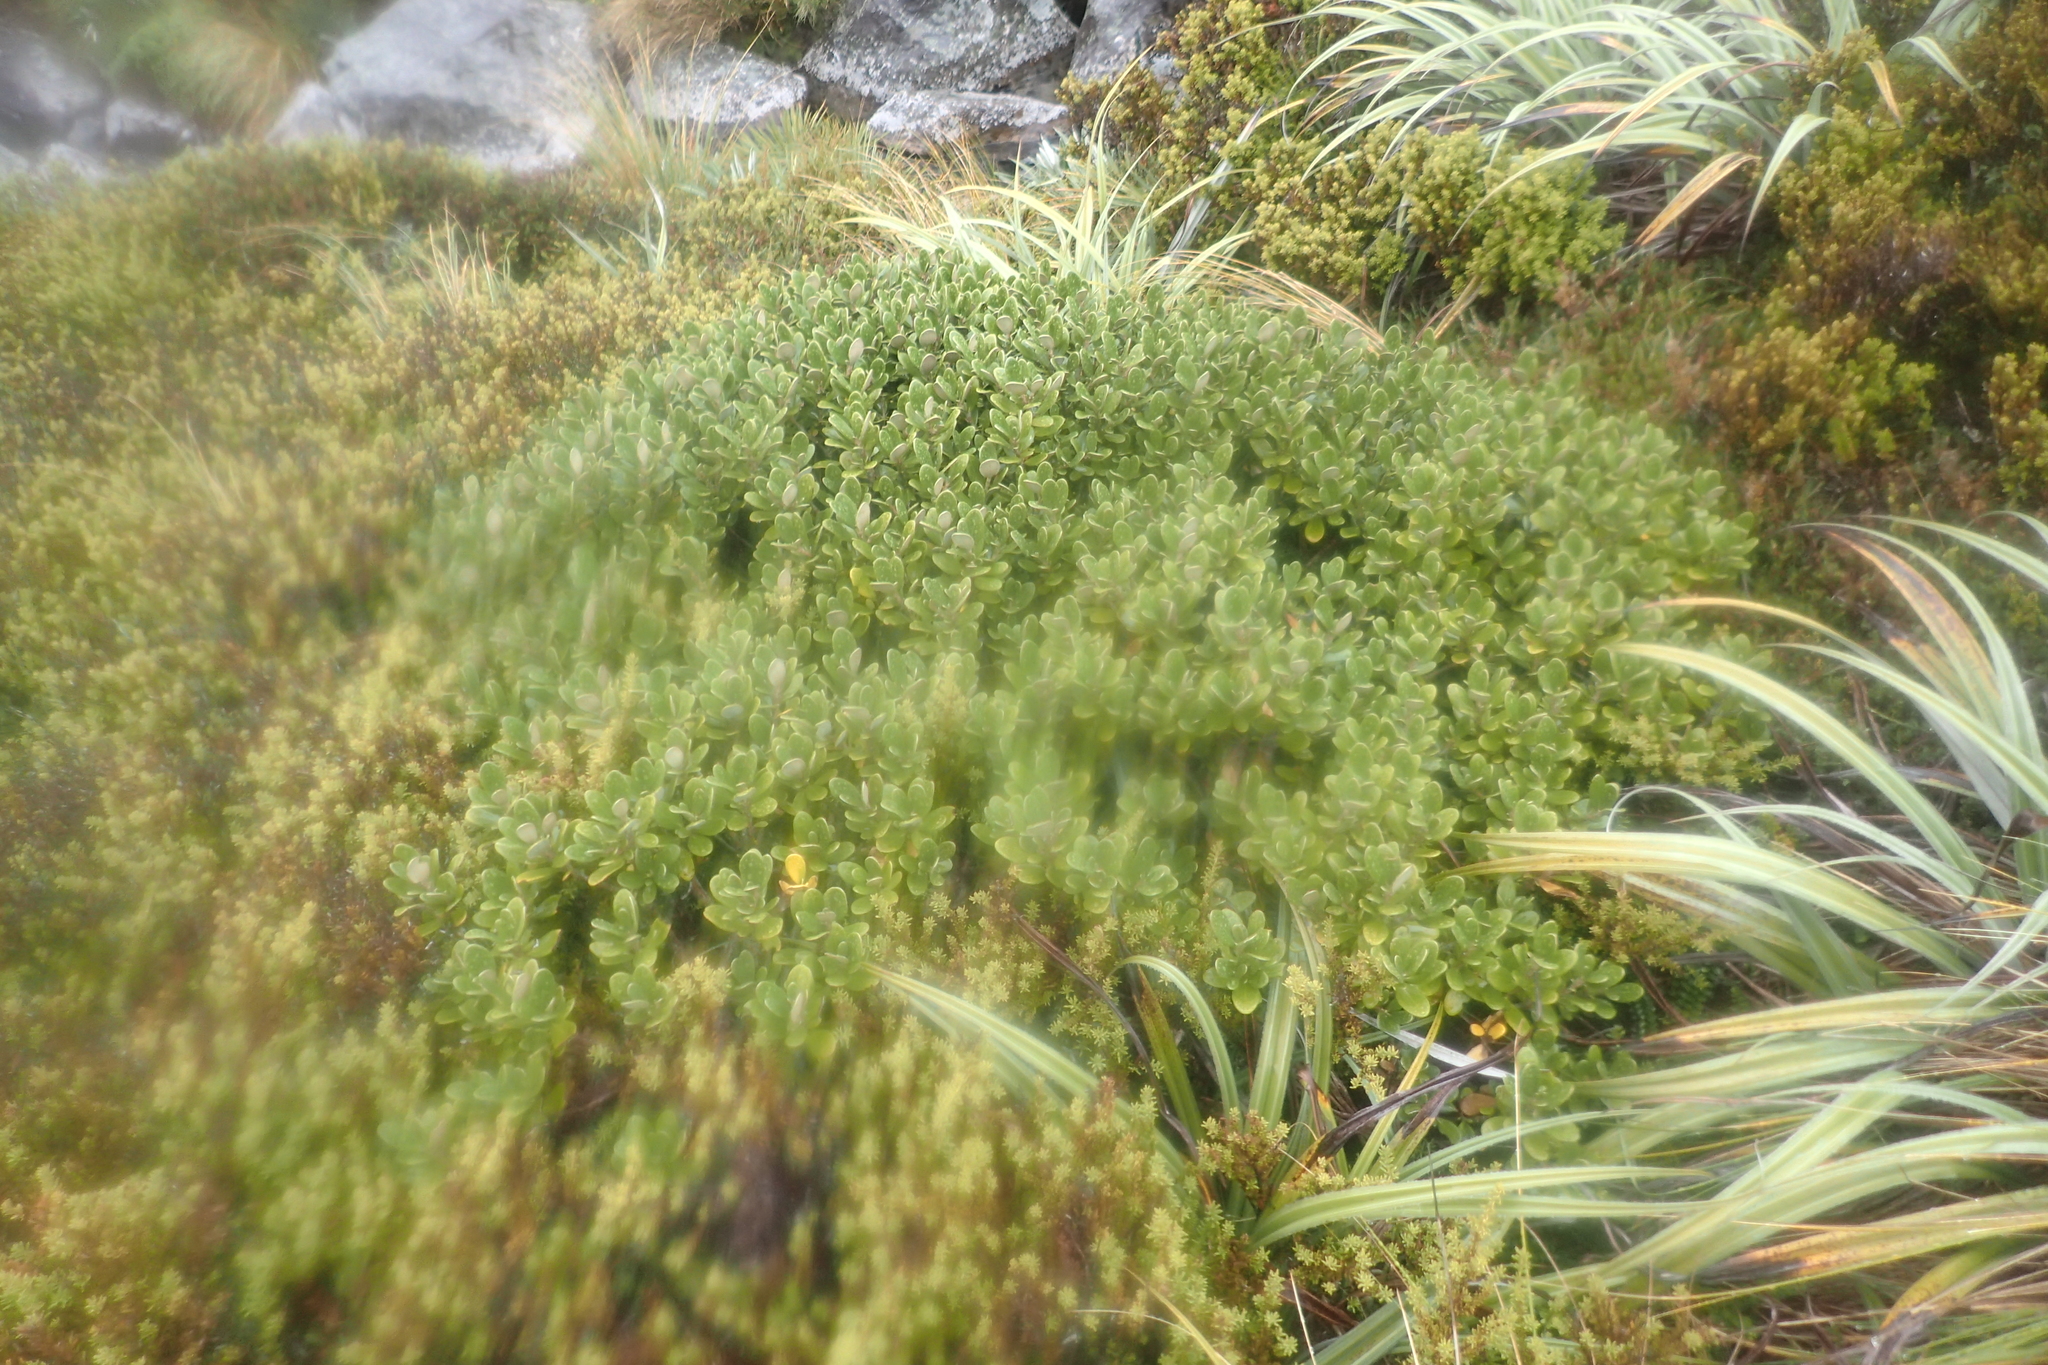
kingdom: Plantae
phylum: Tracheophyta
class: Magnoliopsida
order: Asterales
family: Asteraceae
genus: Brachyglottis
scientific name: Brachyglottis bidwillii
